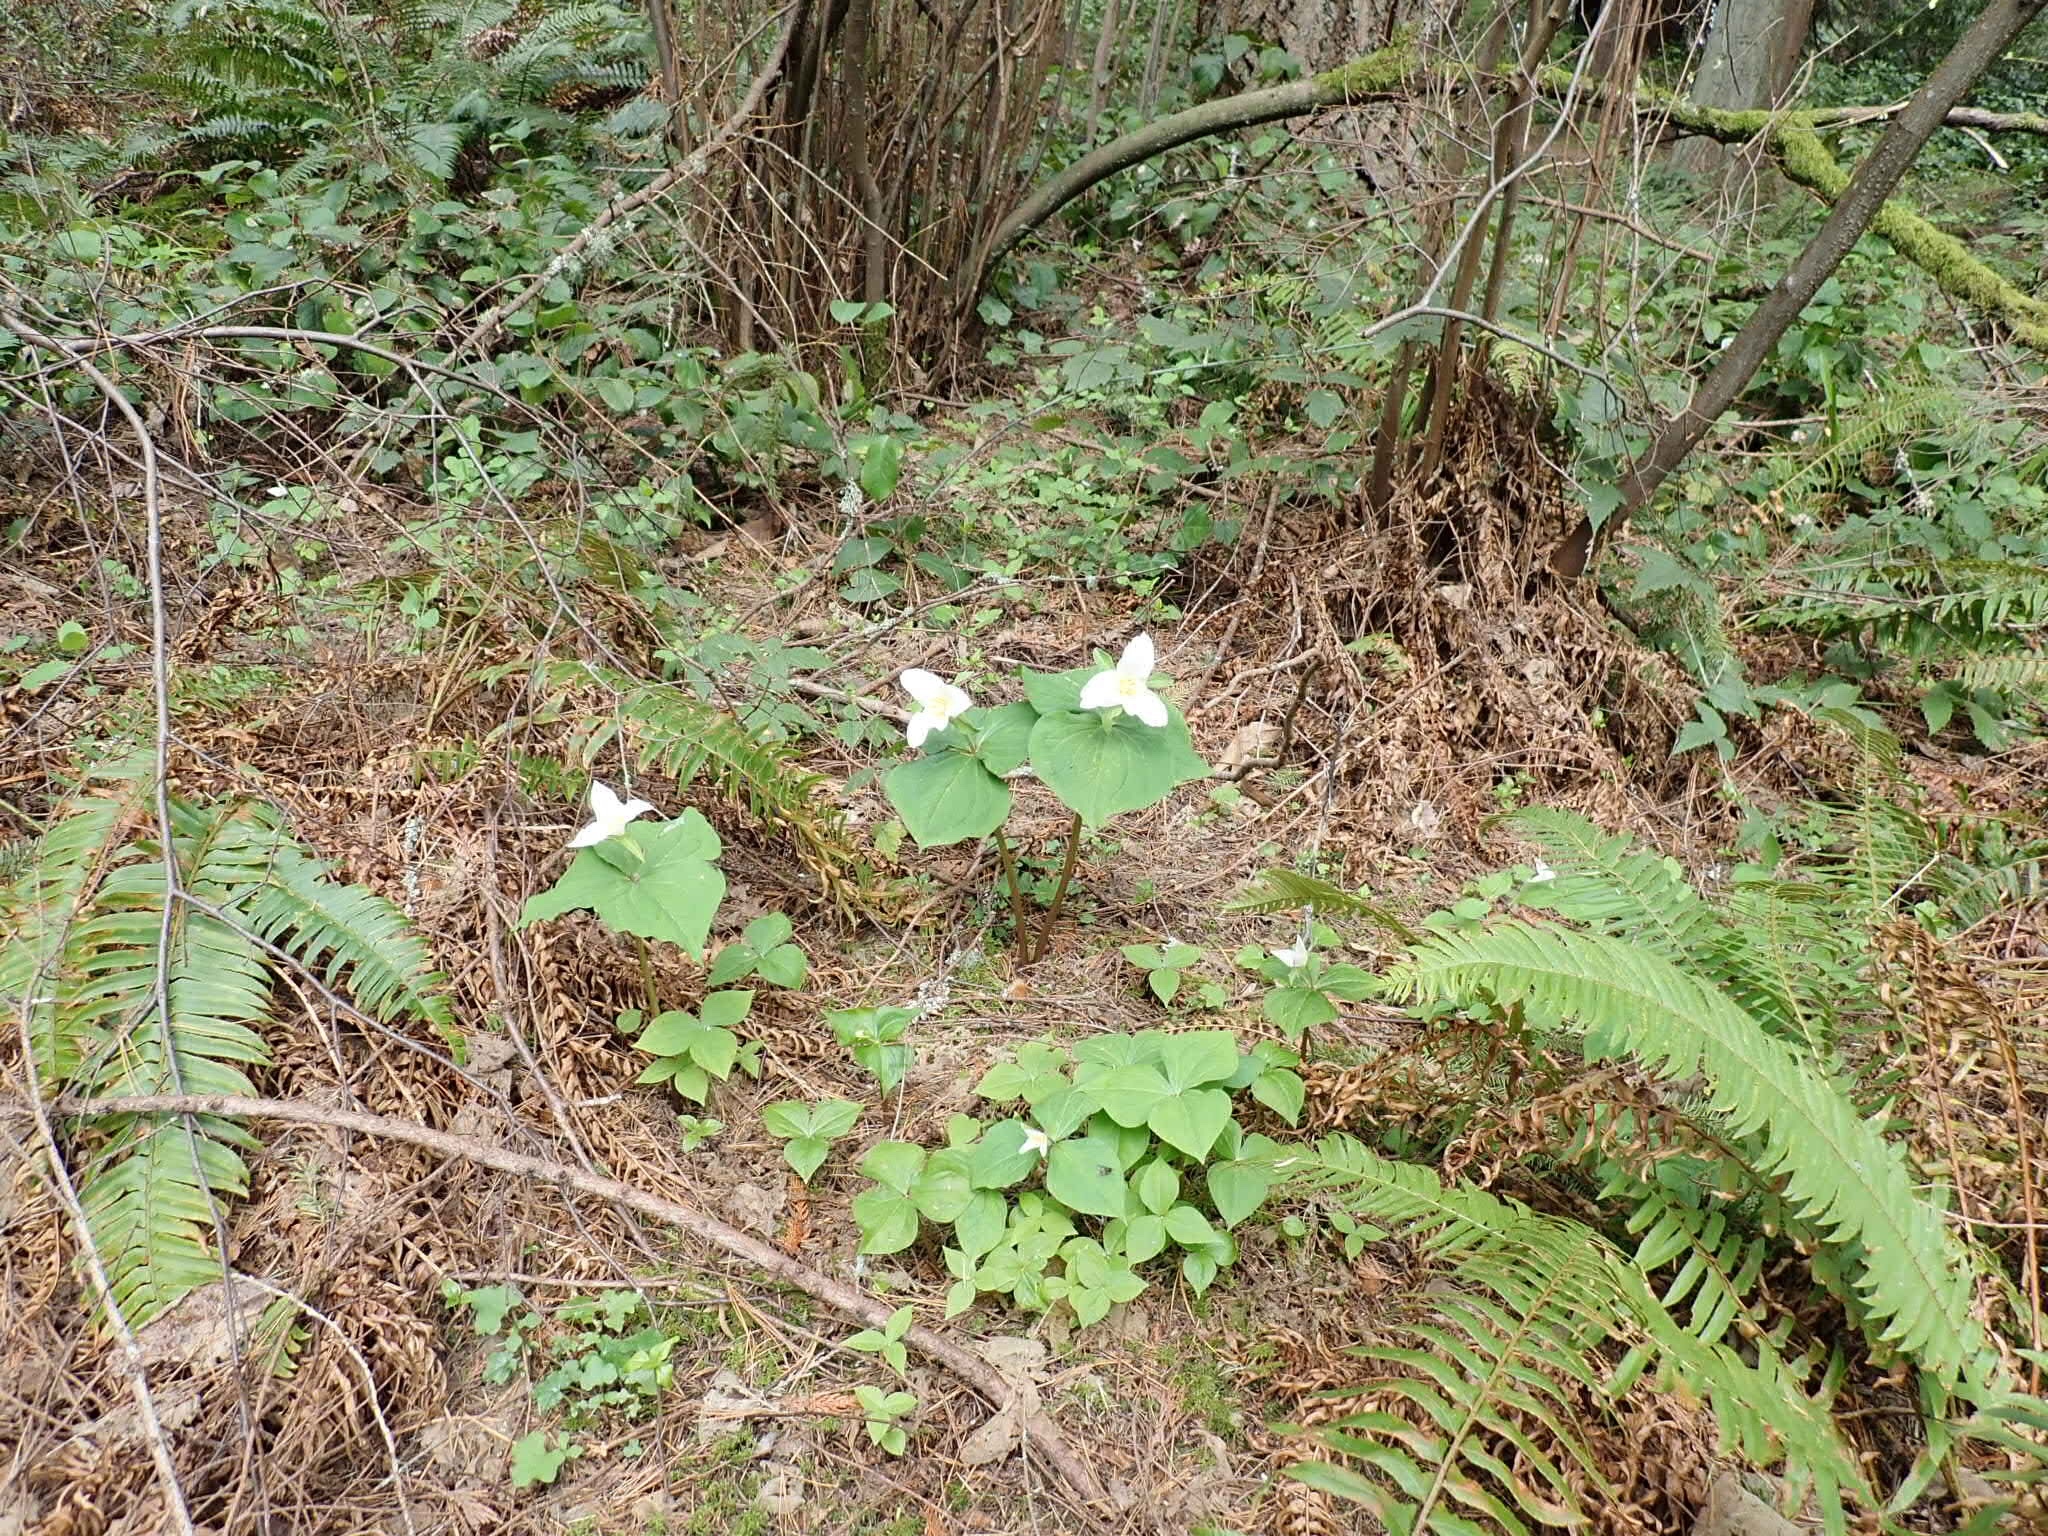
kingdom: Plantae
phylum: Tracheophyta
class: Liliopsida
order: Liliales
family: Melanthiaceae
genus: Trillium
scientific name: Trillium ovatum
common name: Pacific trillium
